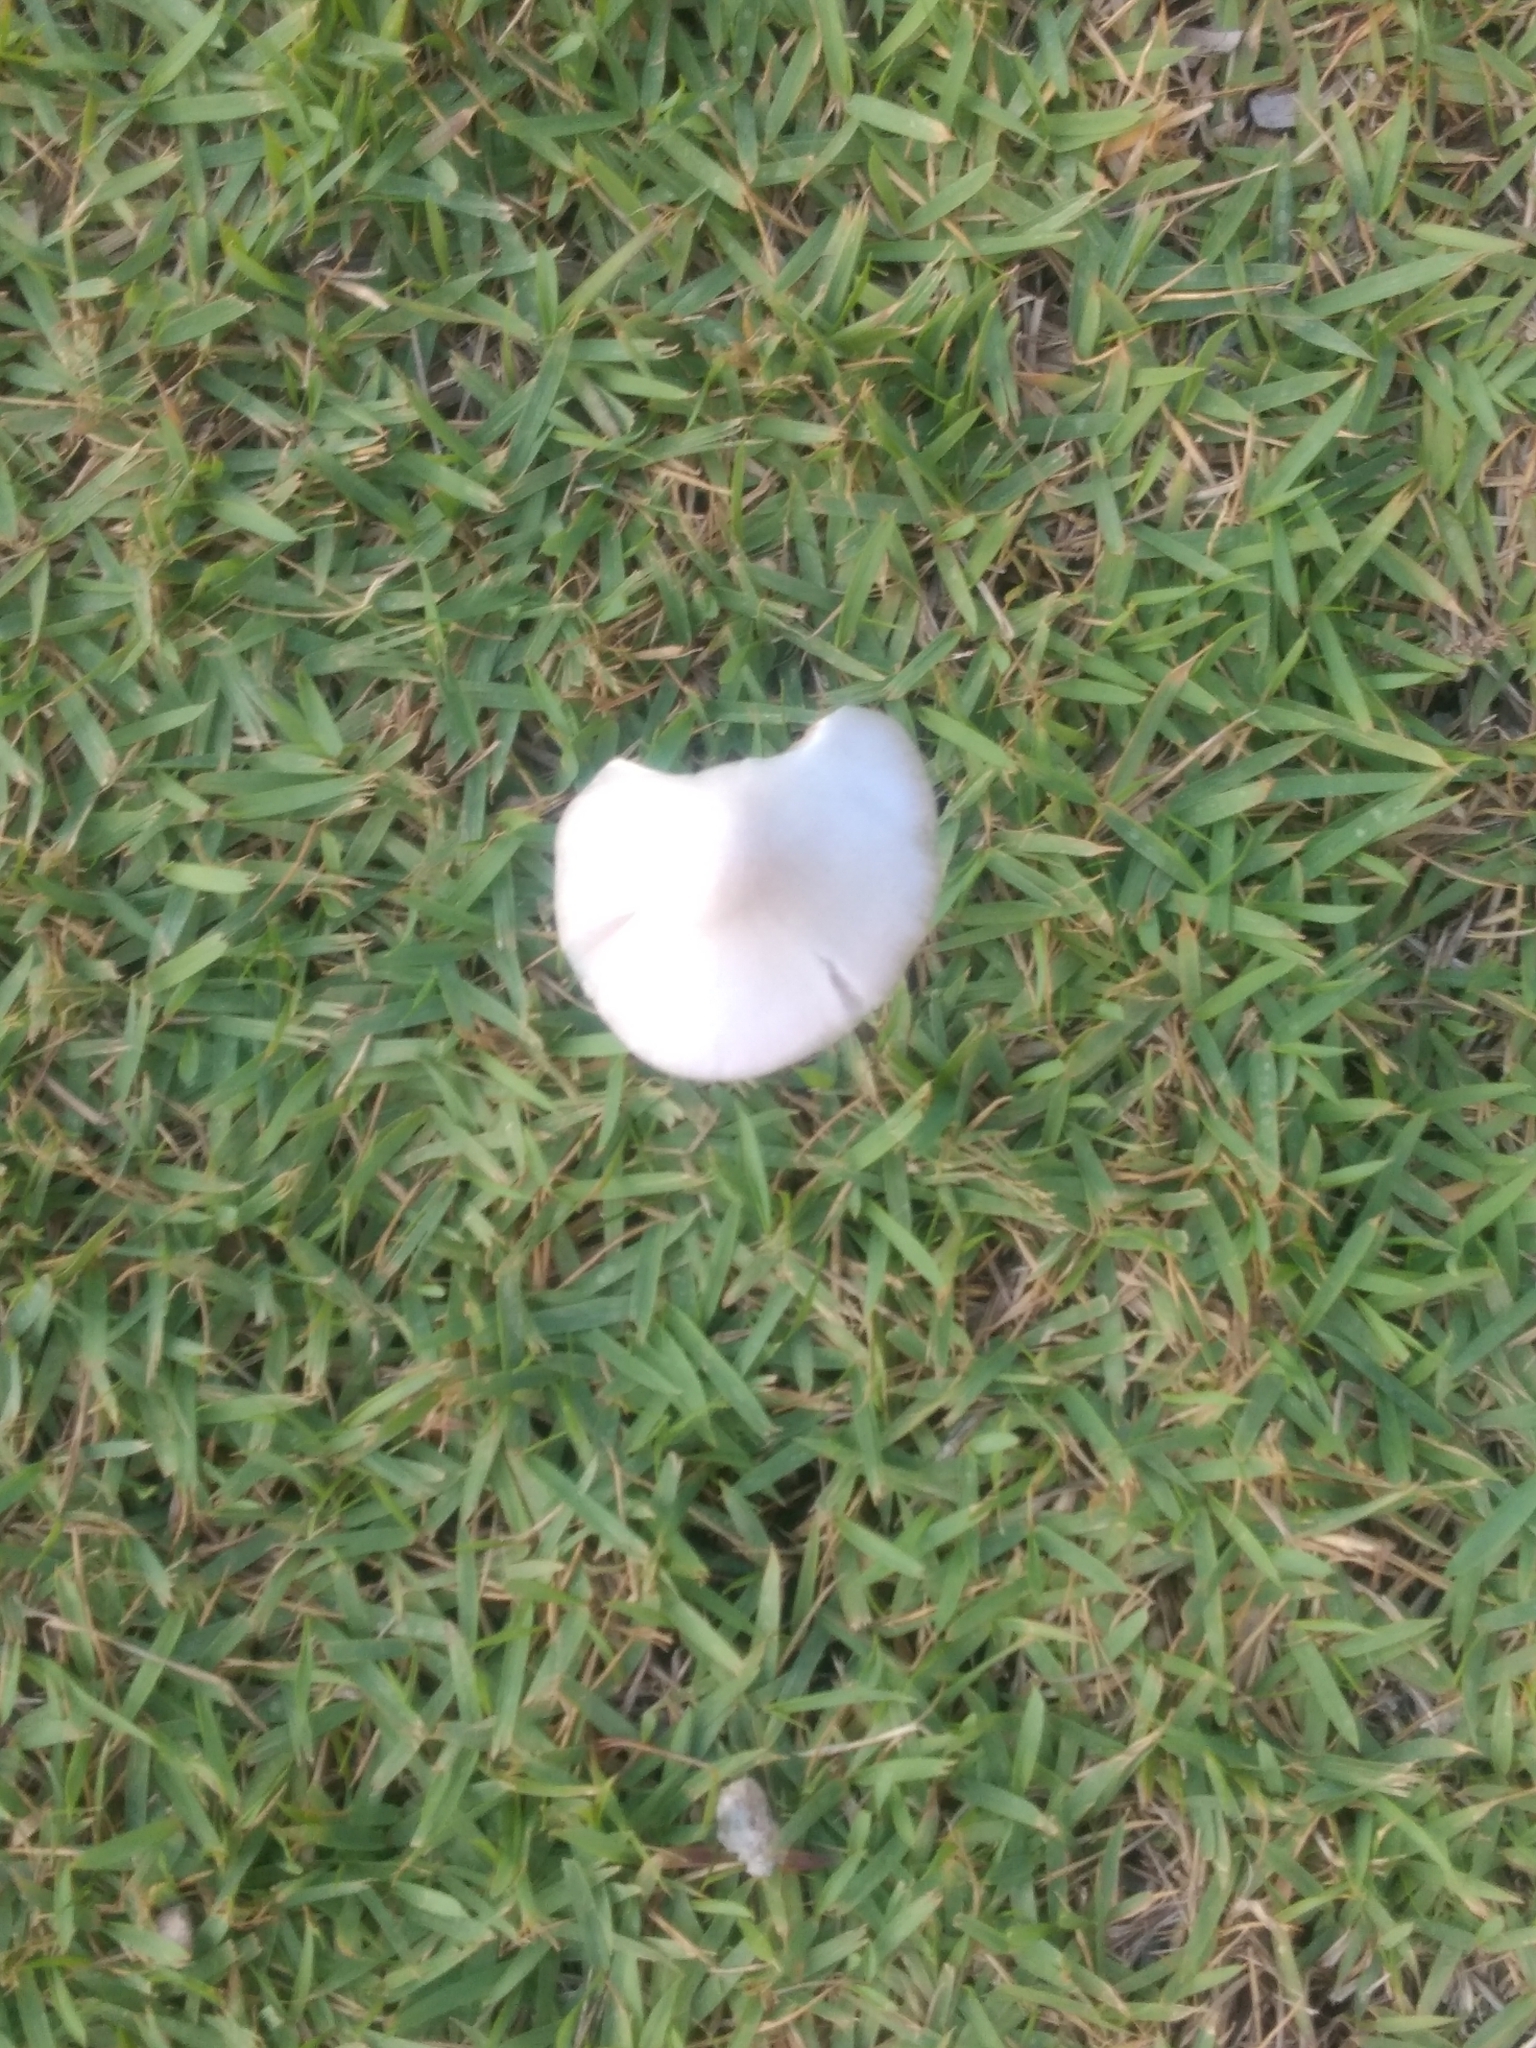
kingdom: Fungi
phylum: Basidiomycota
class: Agaricomycetes
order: Agaricales
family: Pluteaceae
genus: Volvopluteus
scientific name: Volvopluteus gloiocephalus
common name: Stubble rosegill
